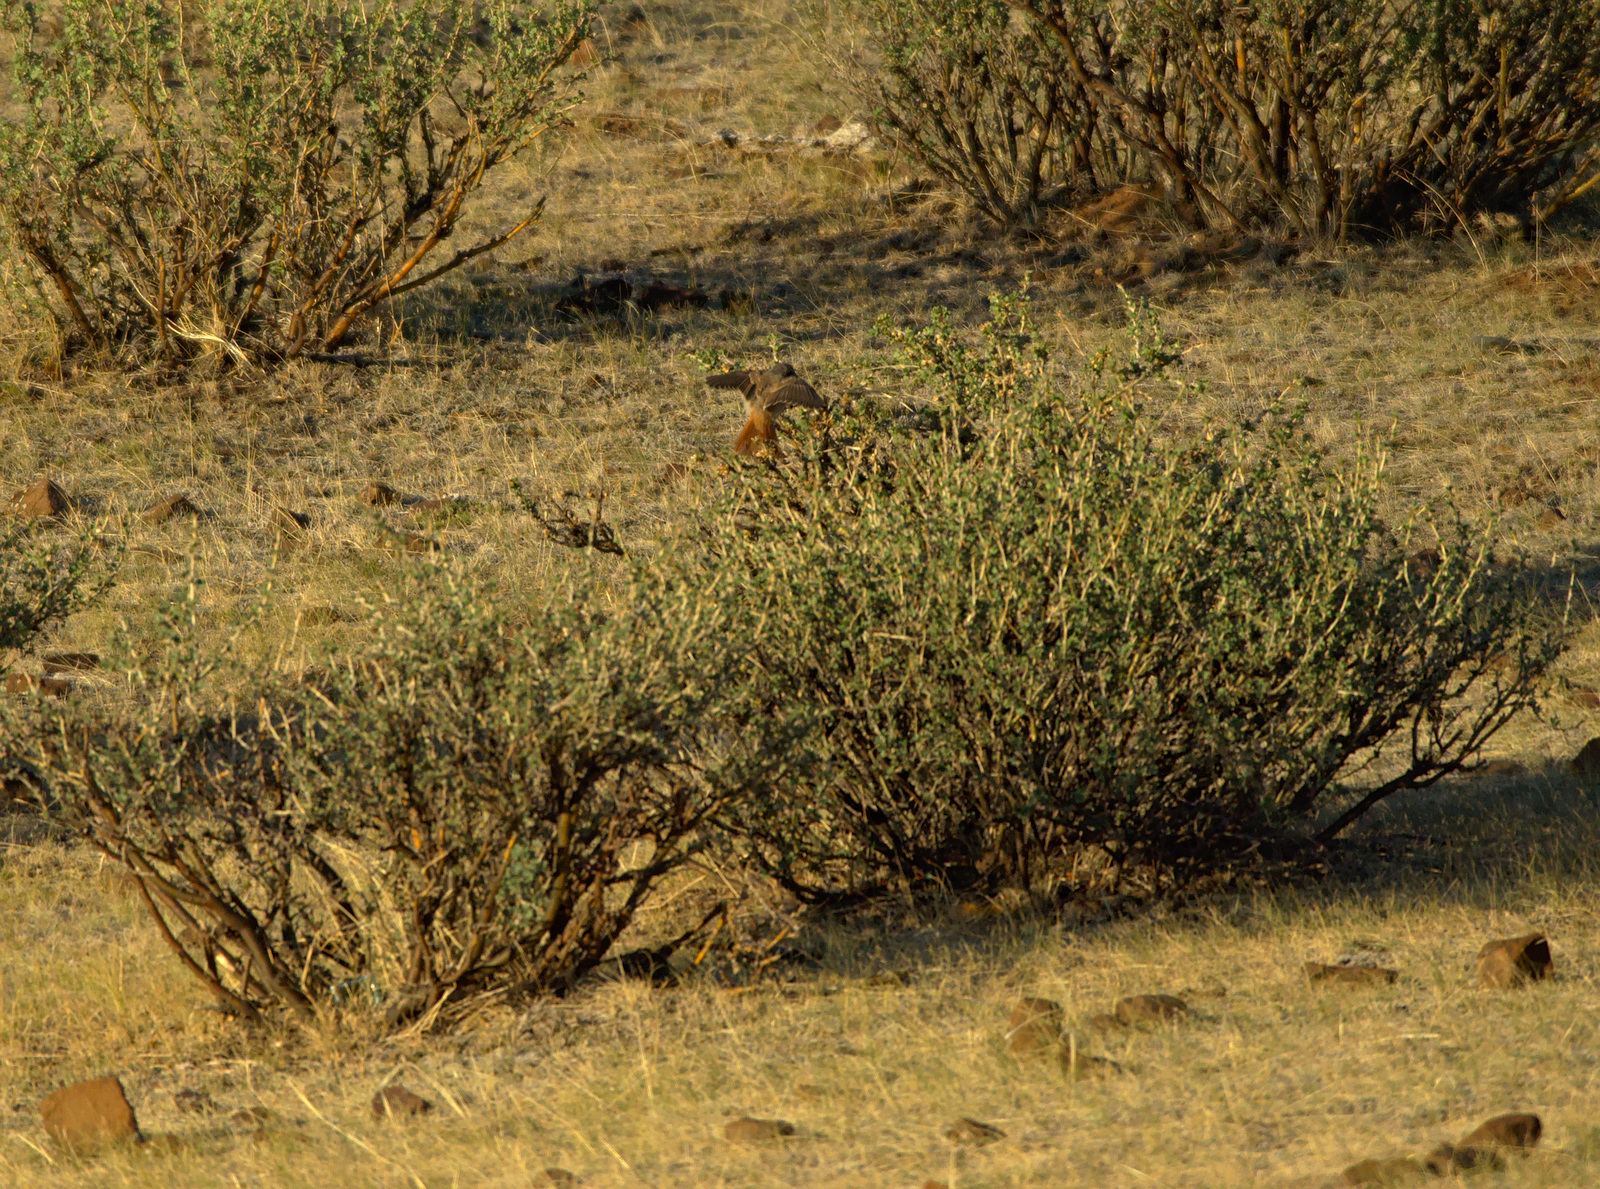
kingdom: Animalia
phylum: Chordata
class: Aves
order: Passeriformes
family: Muscicapidae
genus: Phoenicurus
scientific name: Phoenicurus ochruros
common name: Black redstart
